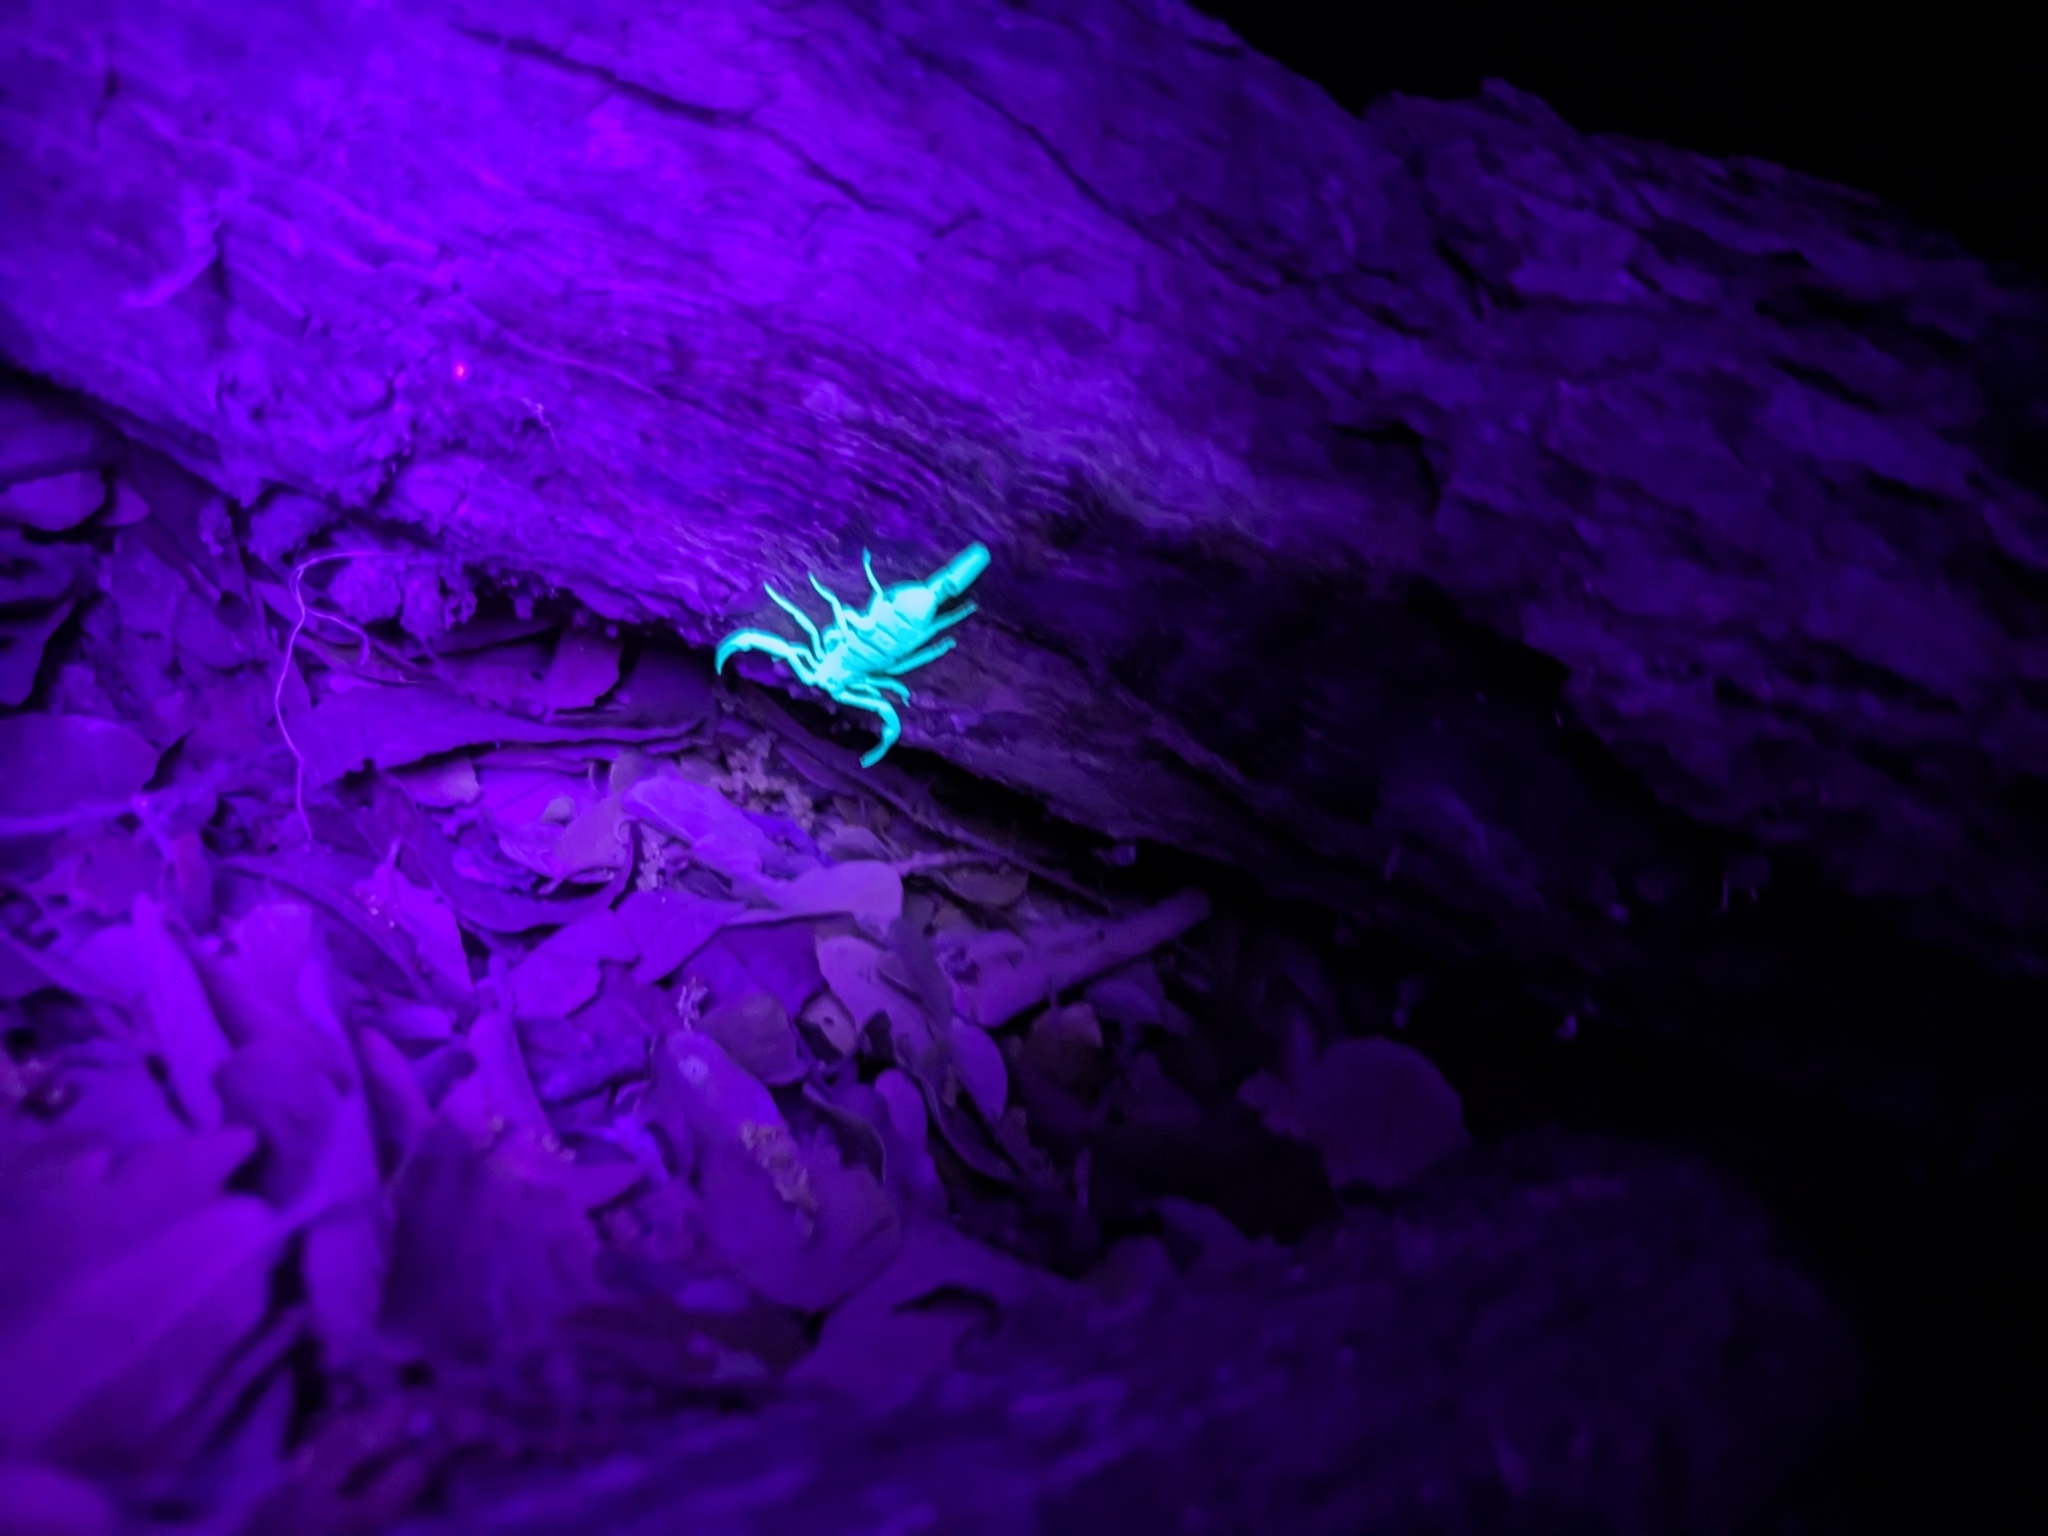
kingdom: Animalia
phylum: Arthropoda
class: Arachnida
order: Scorpiones
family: Buthidae
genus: Centruroides
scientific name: Centruroides sculpturatus
